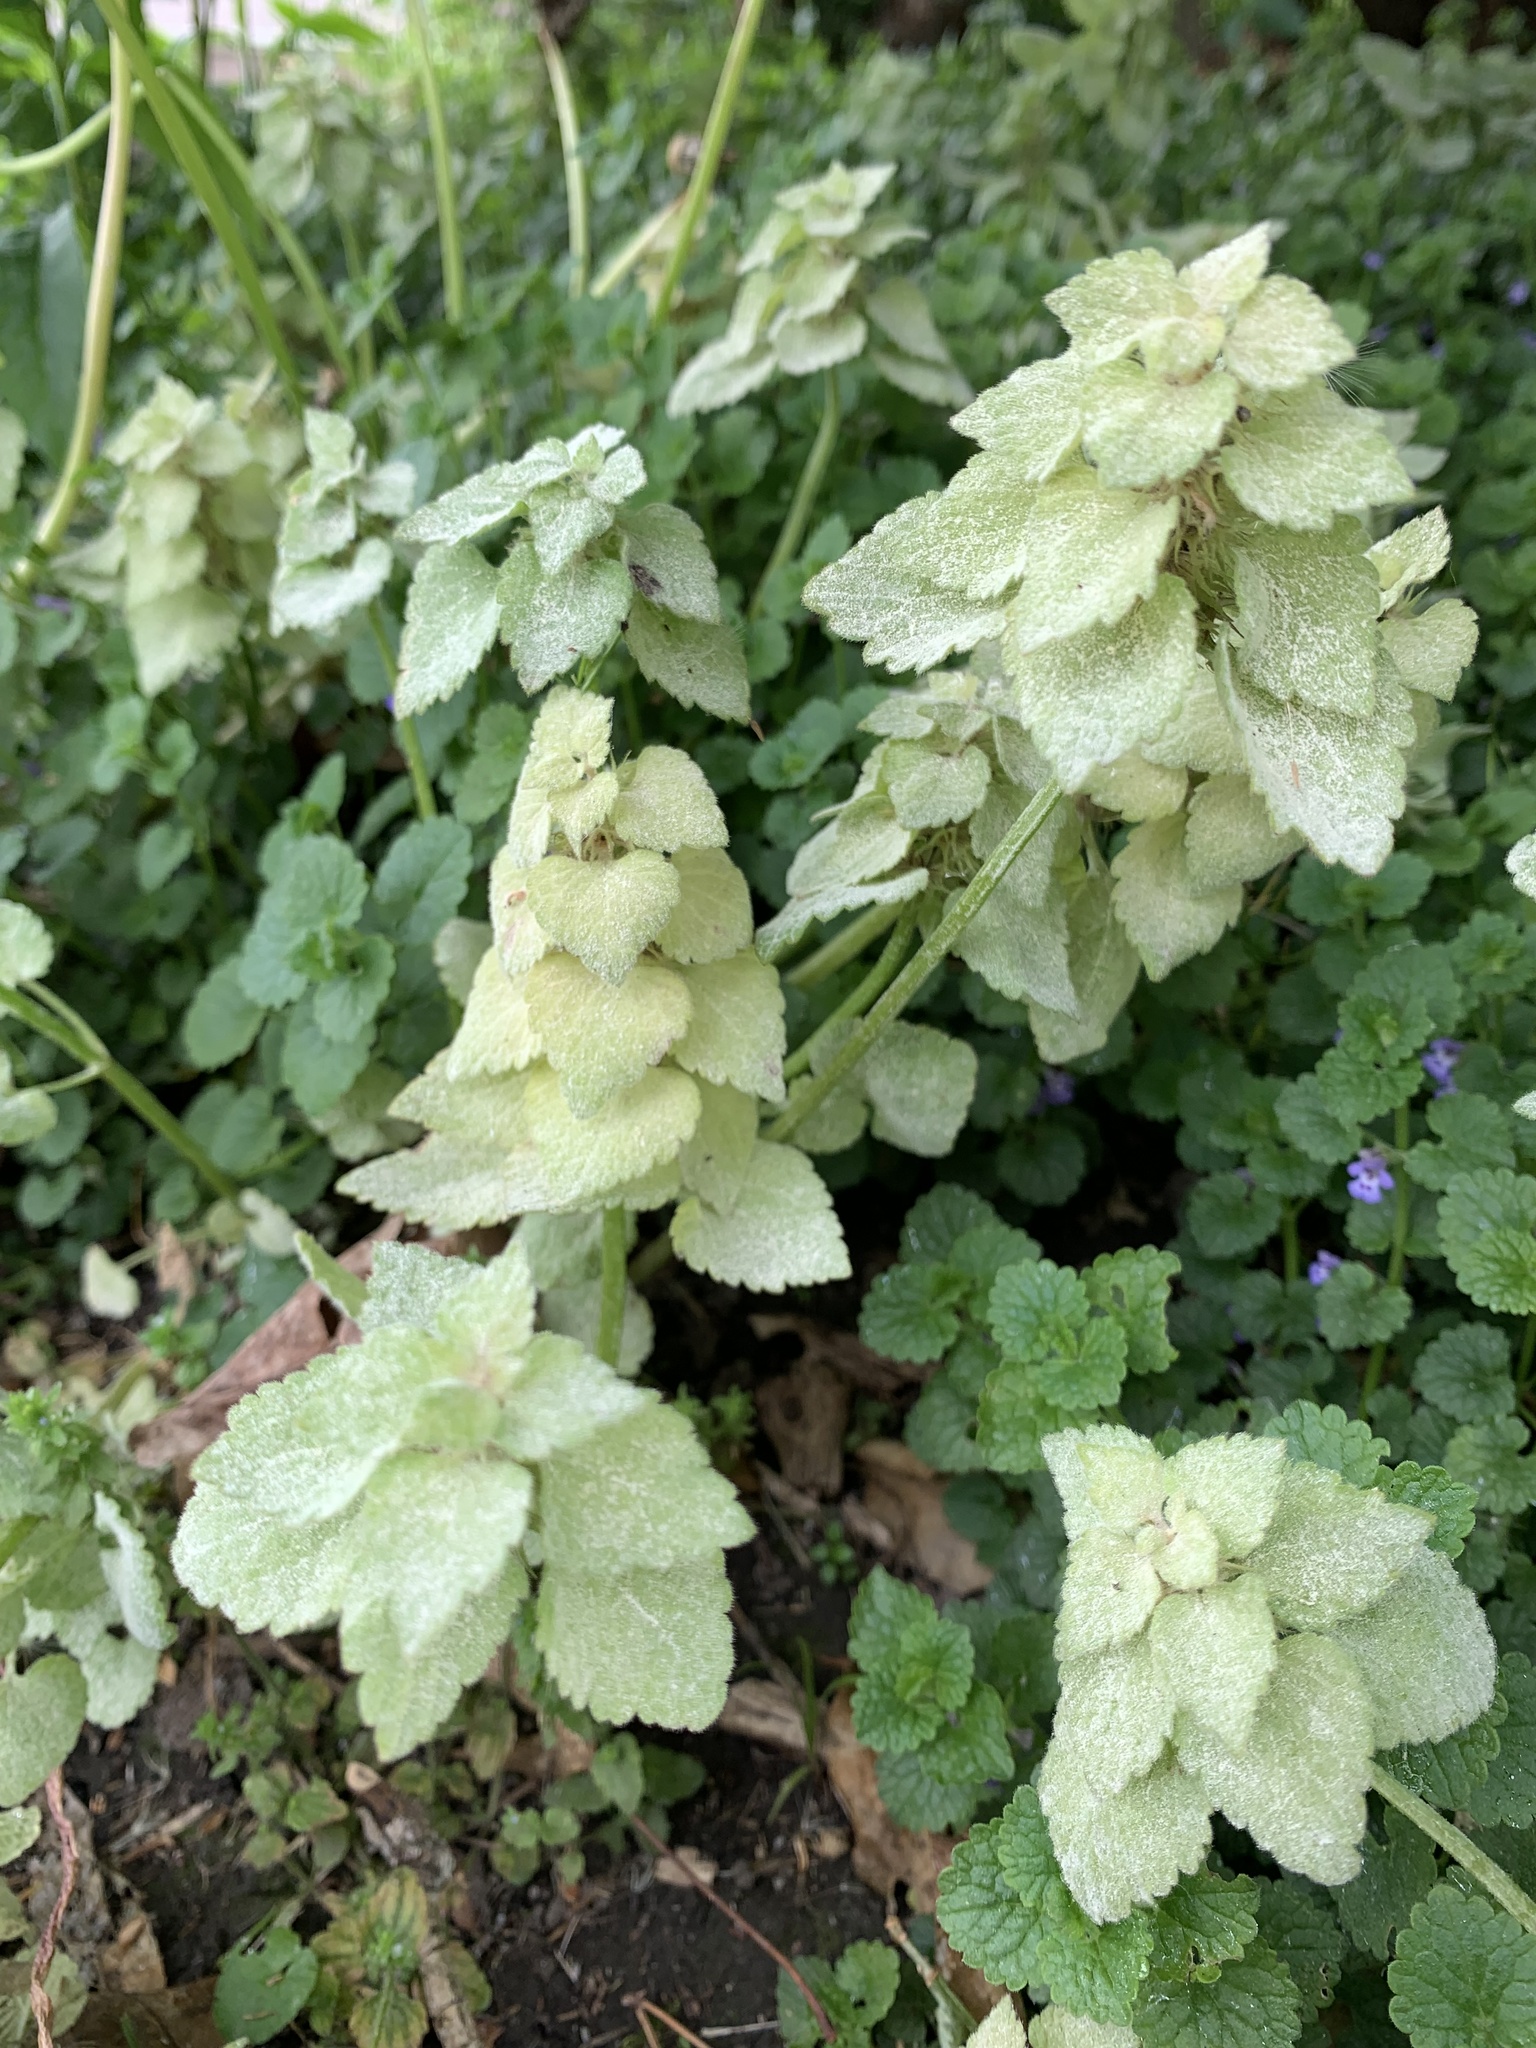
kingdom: Plantae
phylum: Tracheophyta
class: Magnoliopsida
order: Lamiales
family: Lamiaceae
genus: Lamium
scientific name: Lamium purpureum
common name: Red dead-nettle
